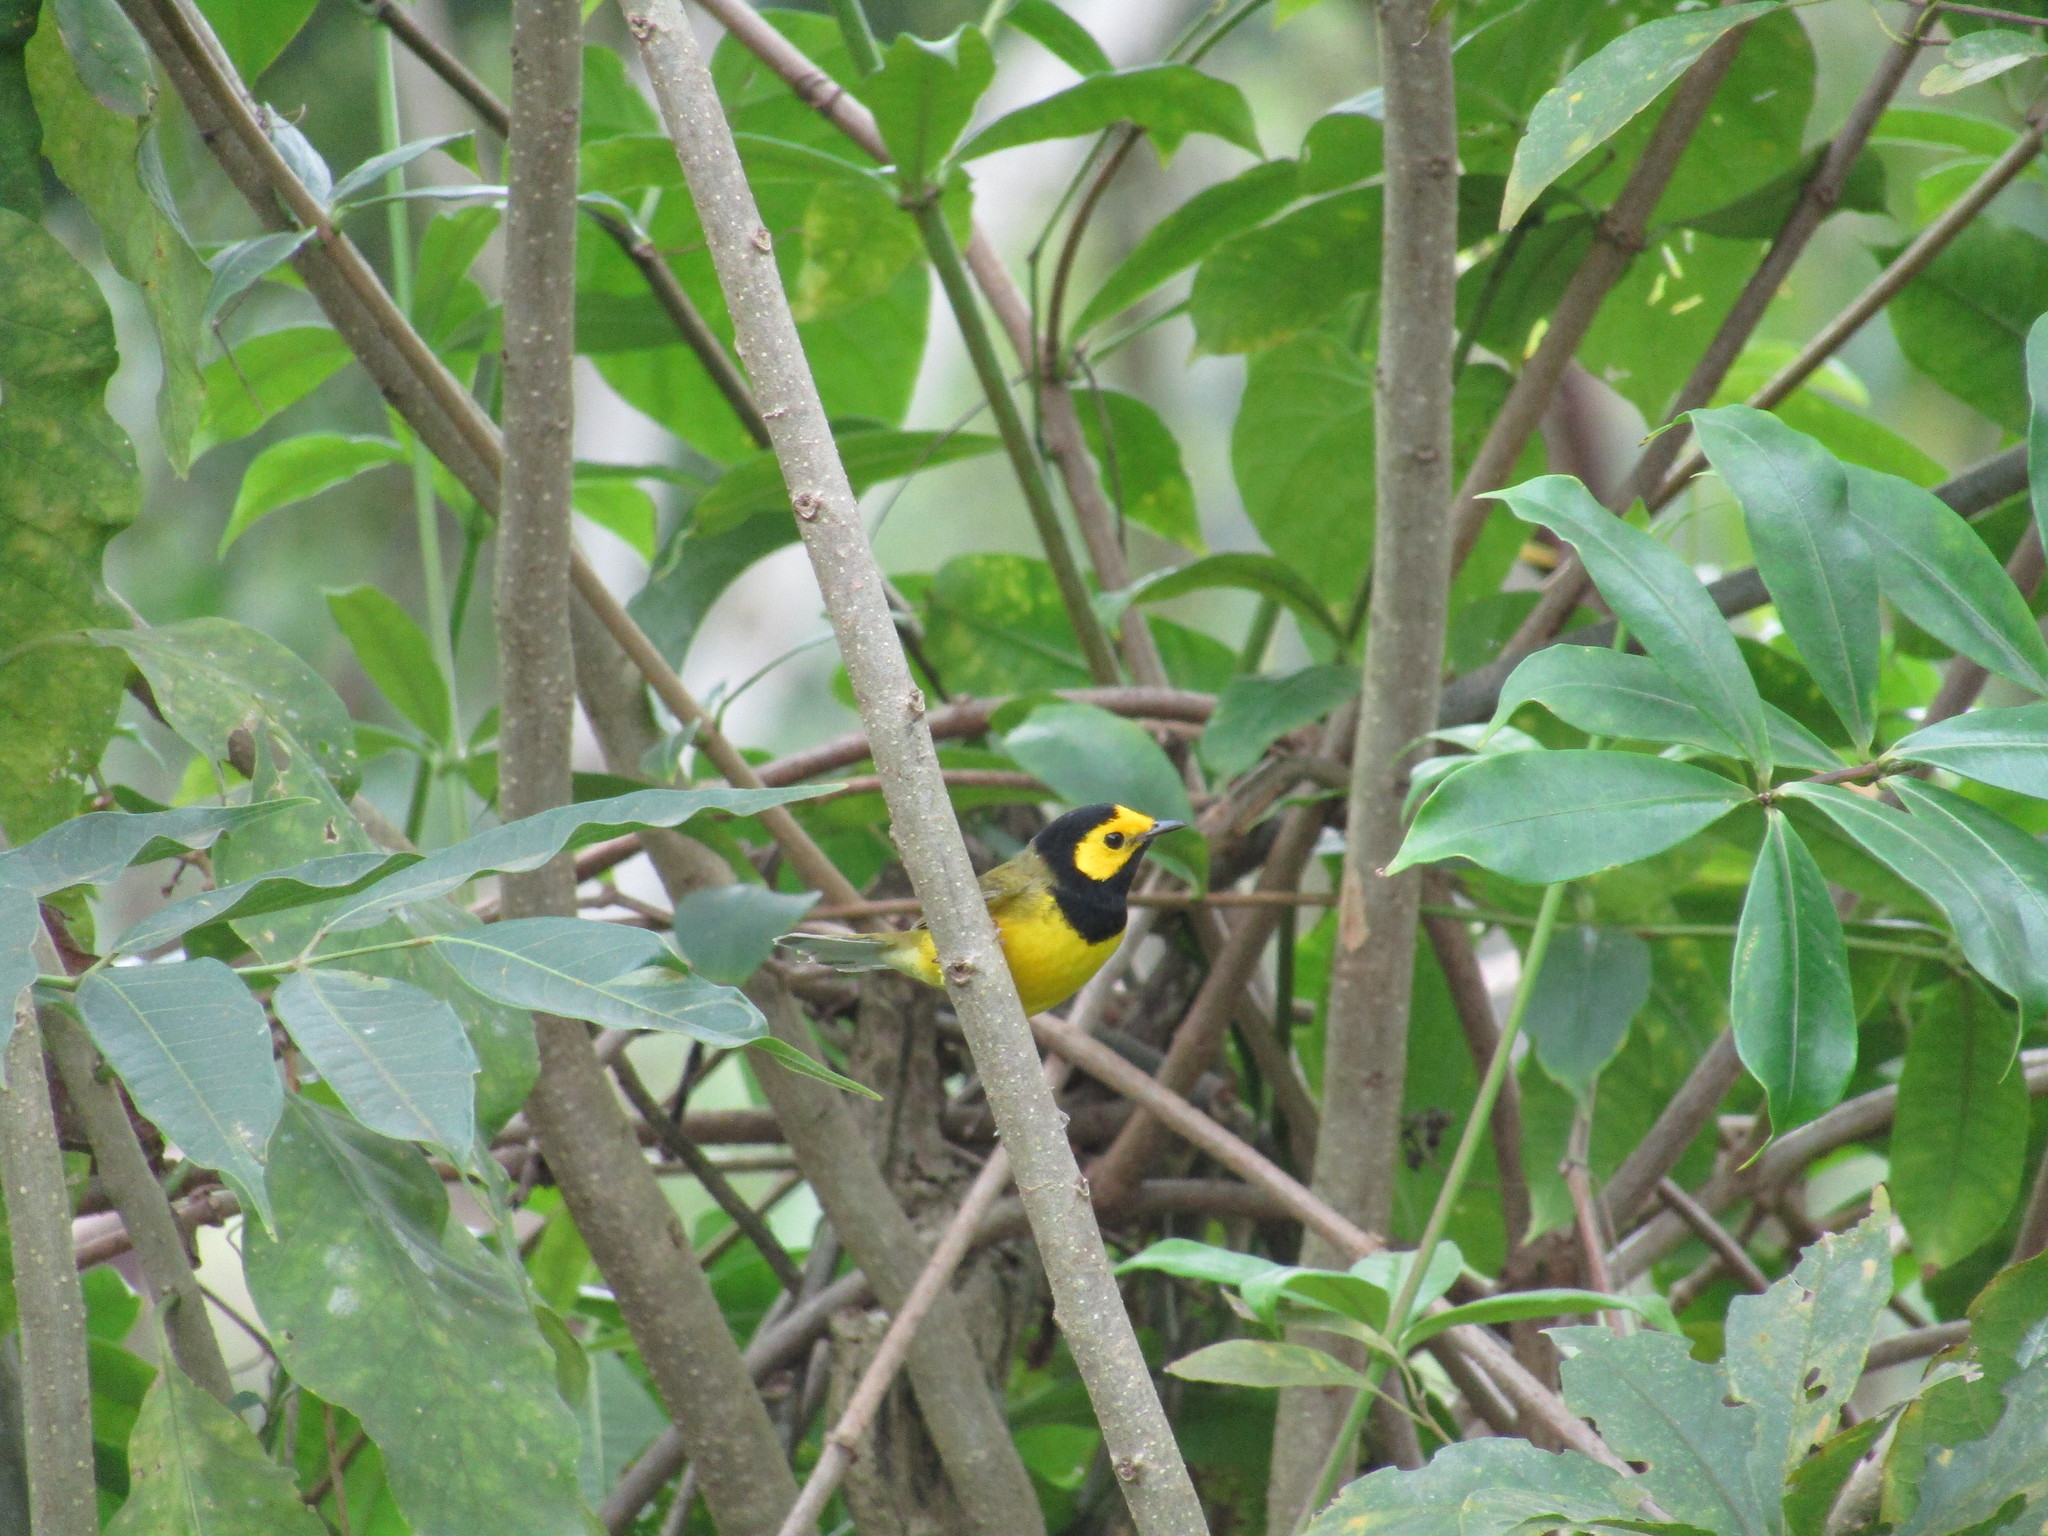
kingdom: Animalia
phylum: Chordata
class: Aves
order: Passeriformes
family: Parulidae
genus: Setophaga
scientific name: Setophaga citrina
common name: Hooded warbler
